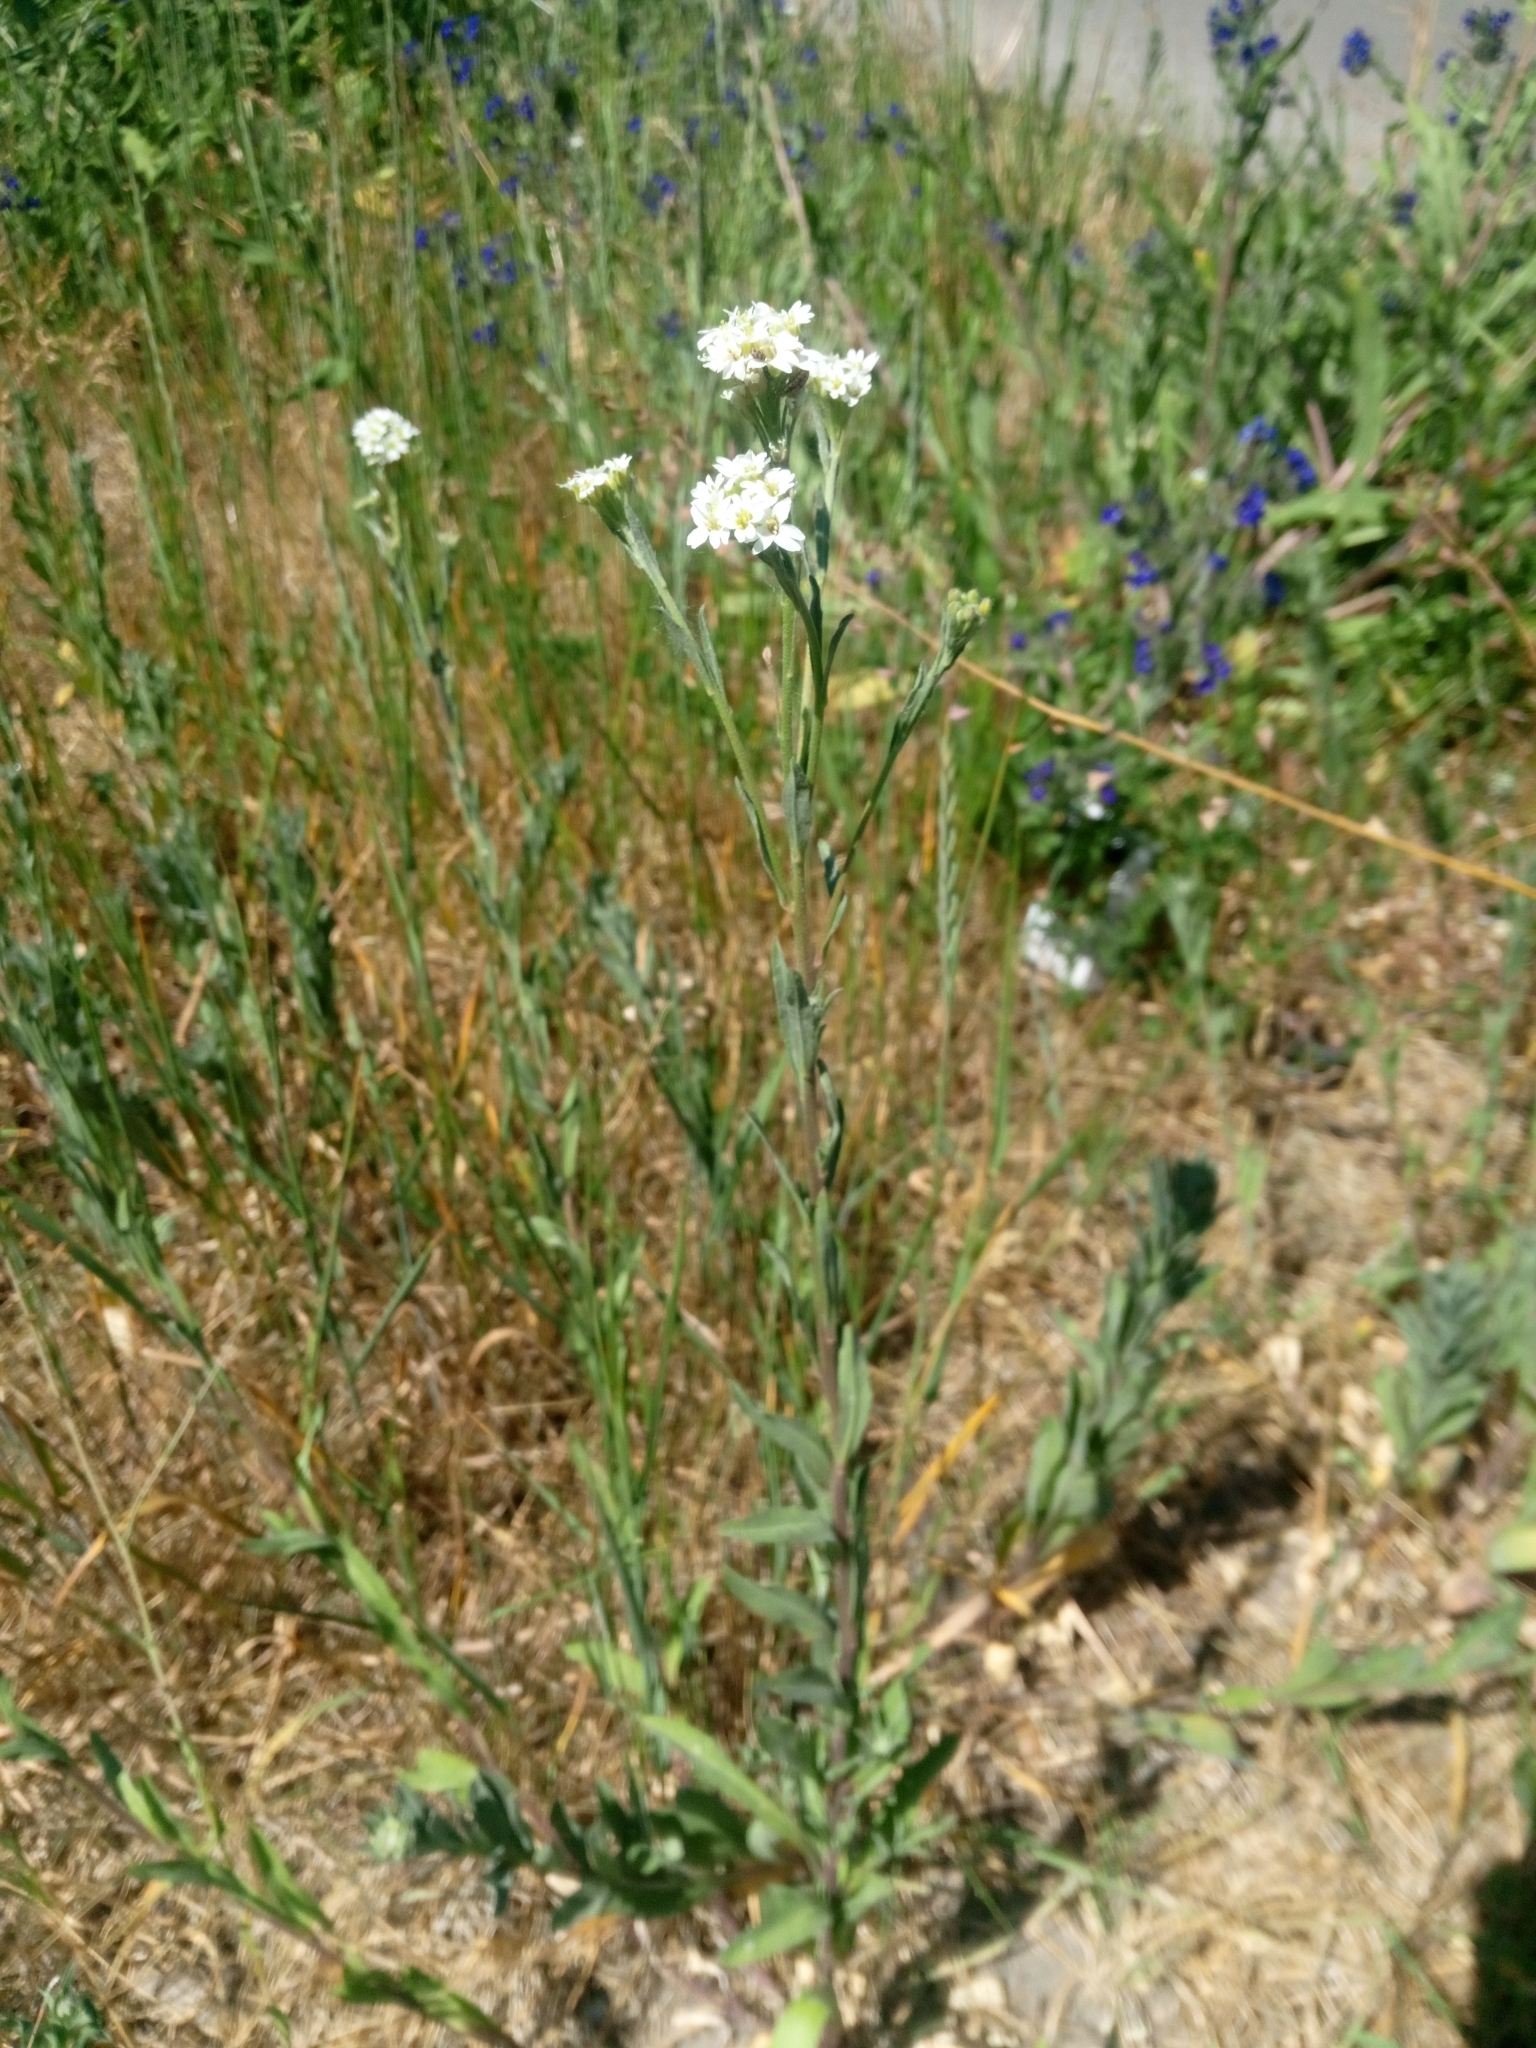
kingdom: Plantae
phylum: Tracheophyta
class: Magnoliopsida
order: Brassicales
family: Brassicaceae
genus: Berteroa
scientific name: Berteroa incana
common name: Hoary alison
